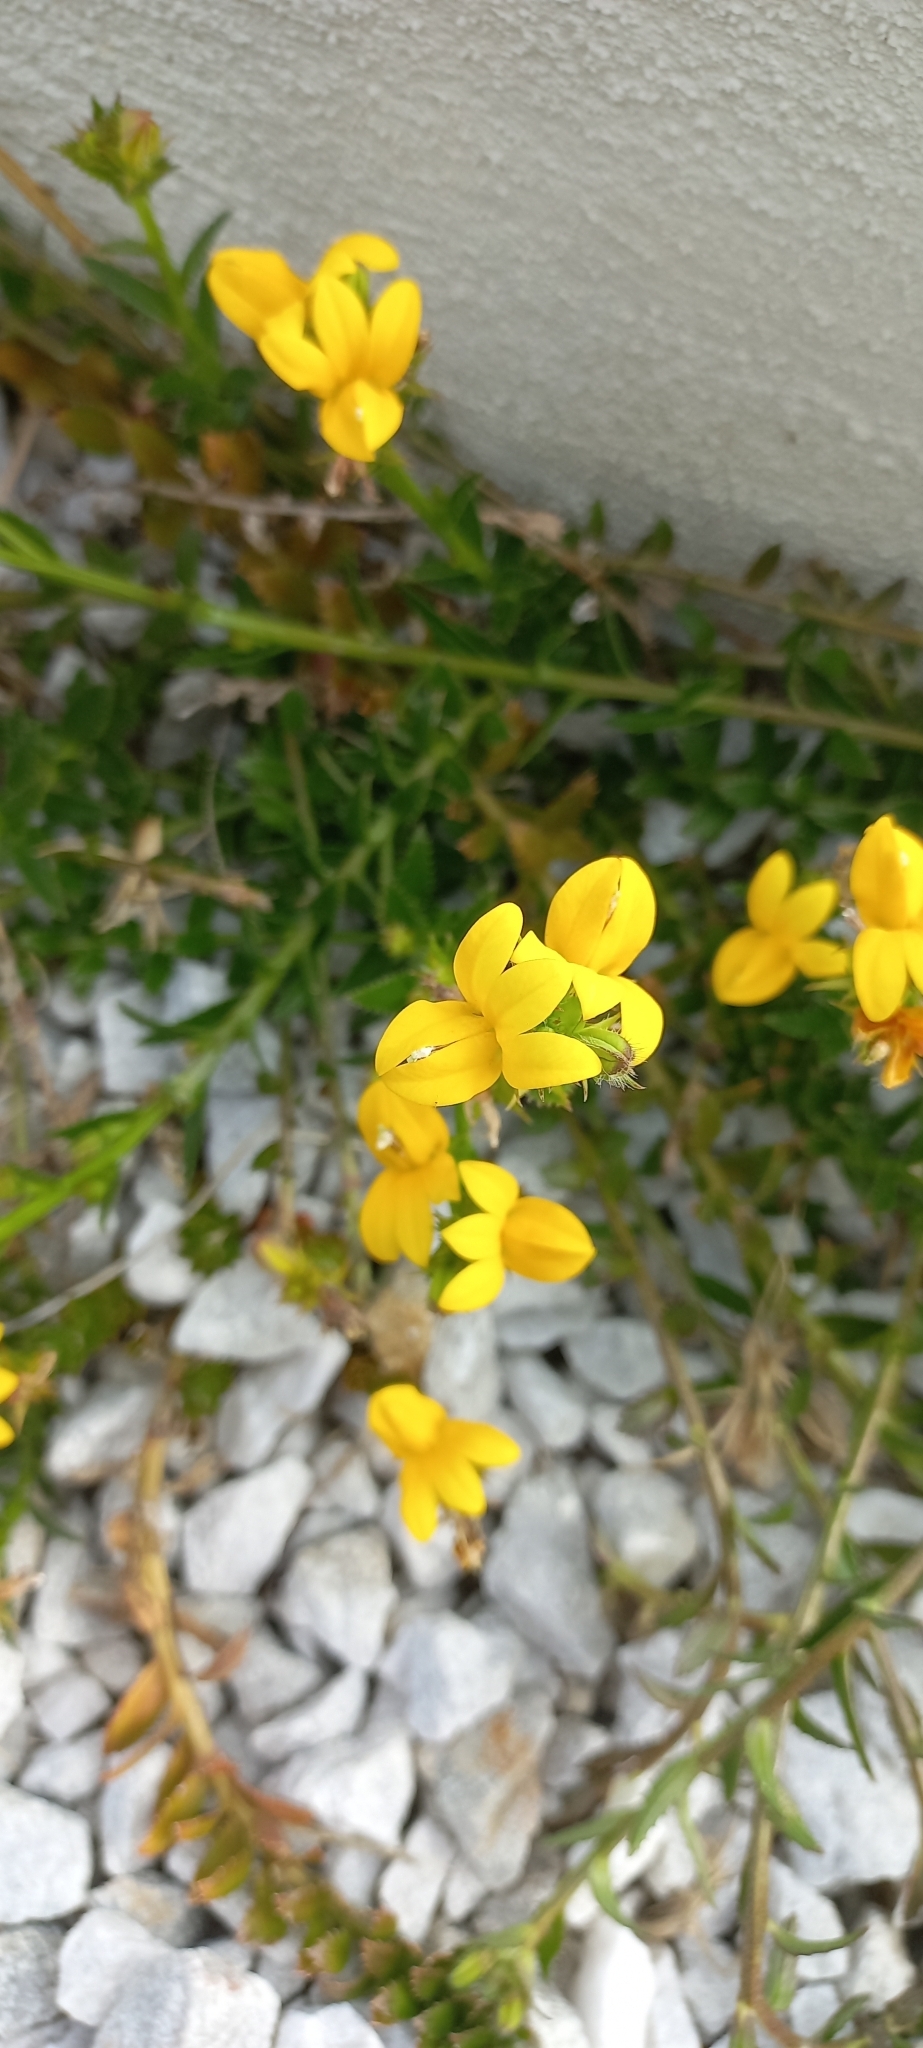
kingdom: Plantae
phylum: Tracheophyta
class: Magnoliopsida
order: Asterales
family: Campanulaceae
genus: Monopsis
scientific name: Monopsis lutea
